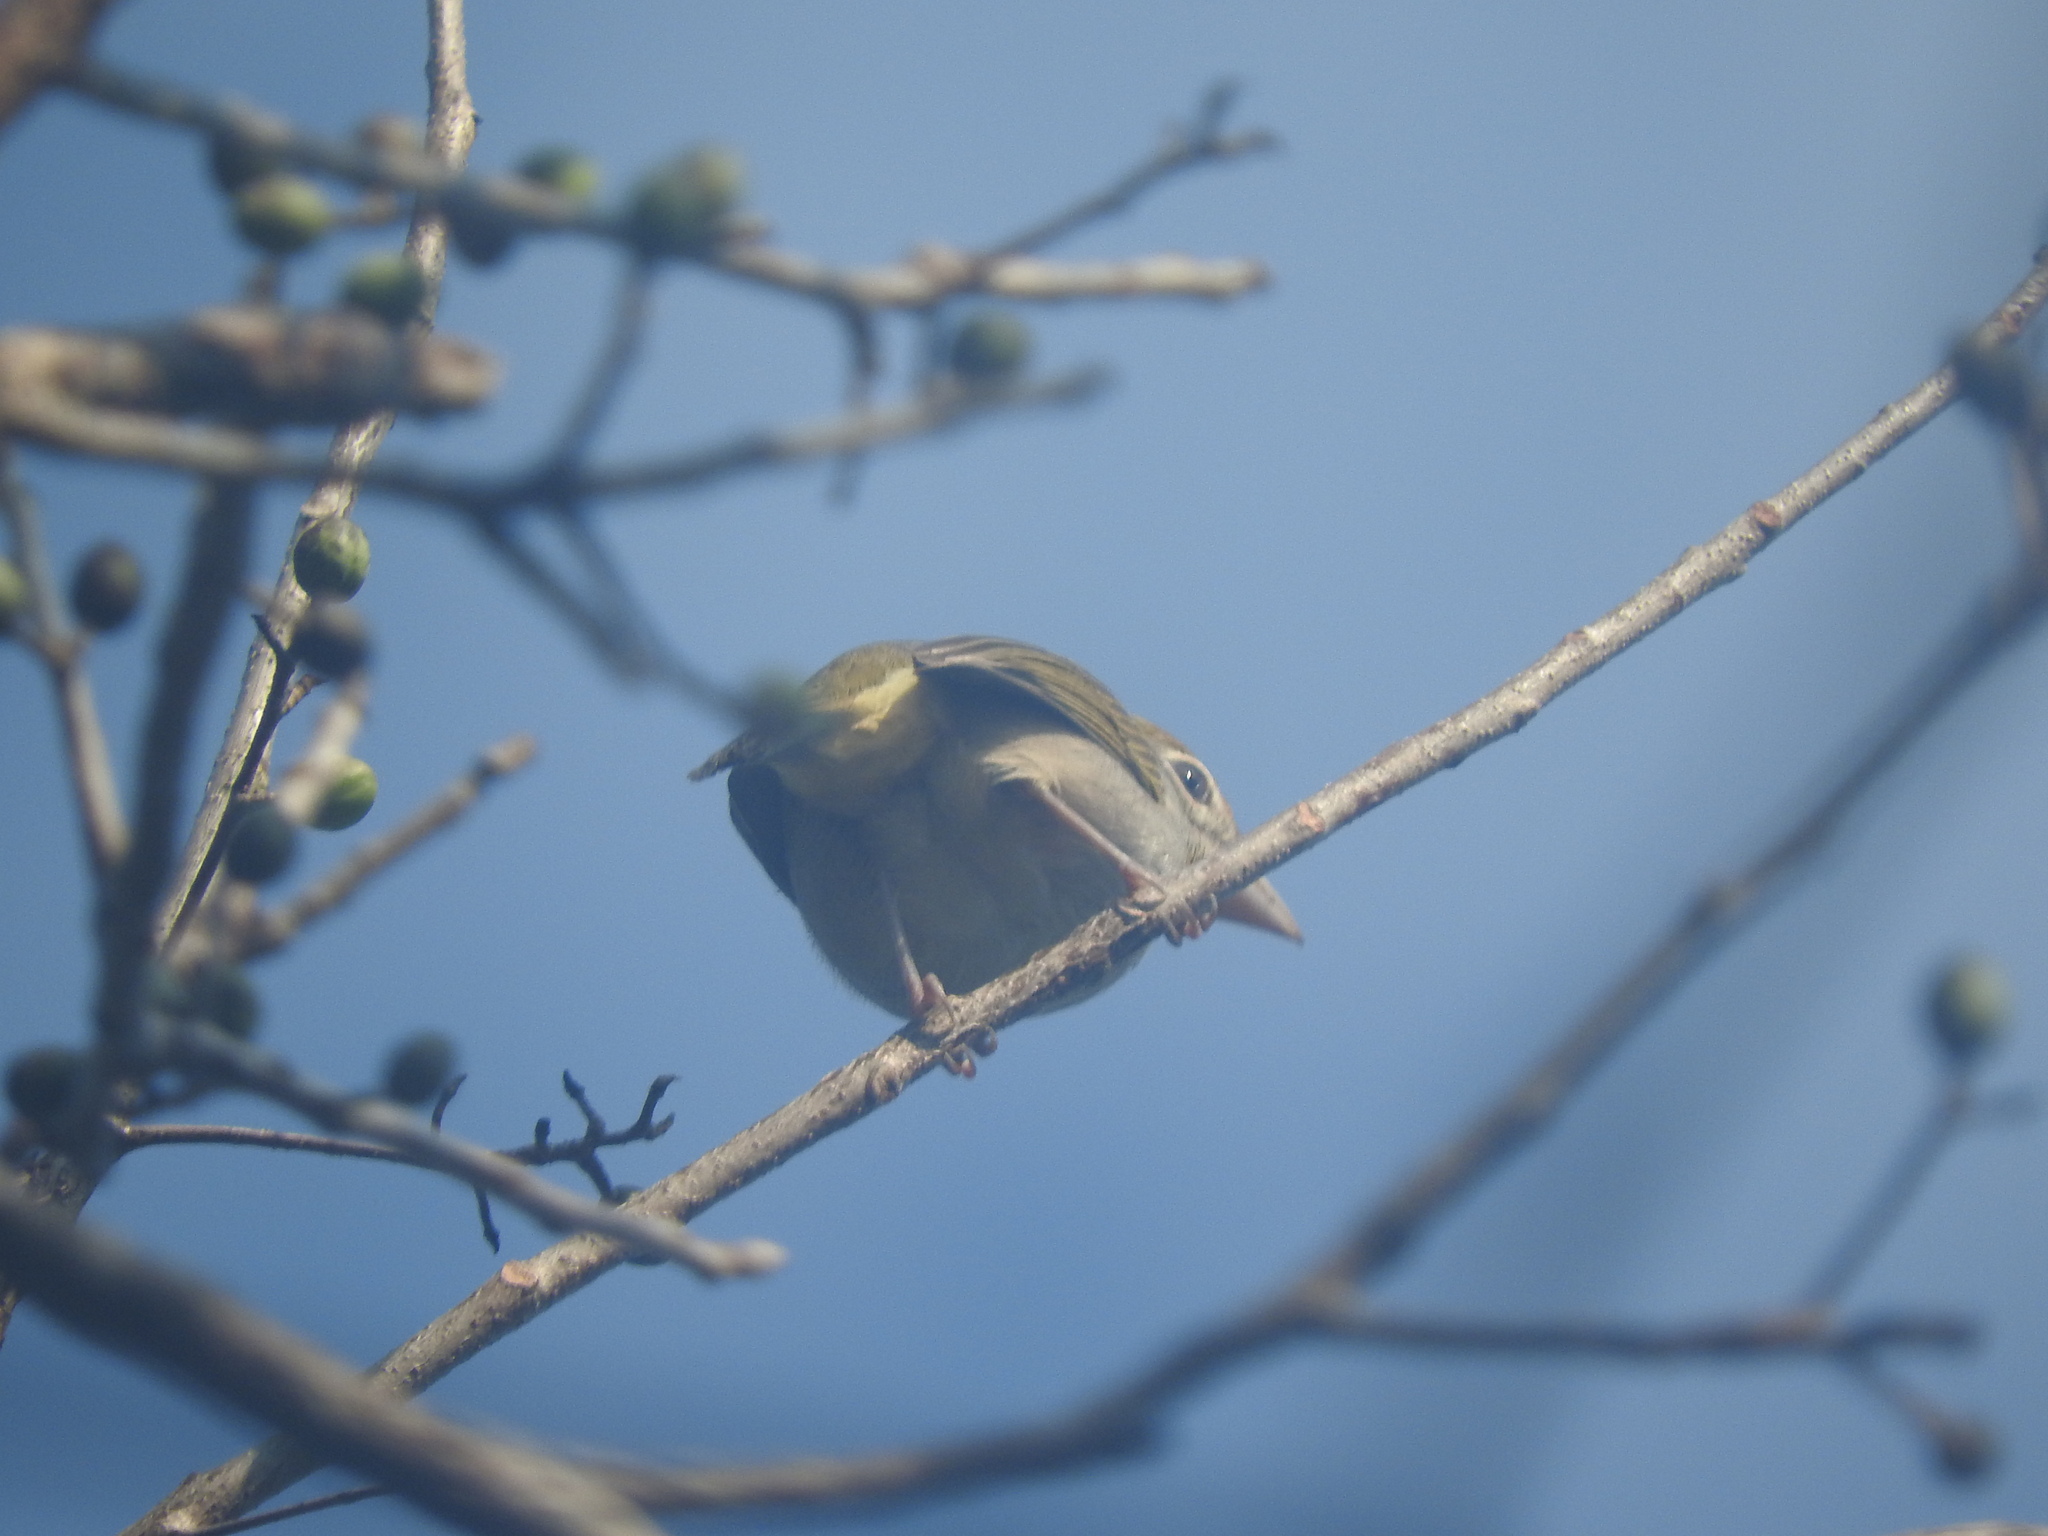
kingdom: Animalia
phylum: Chordata
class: Aves
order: Passeriformes
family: Cardinalidae
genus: Piranga
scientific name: Piranga roseogularis
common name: Rose-throated tanager
